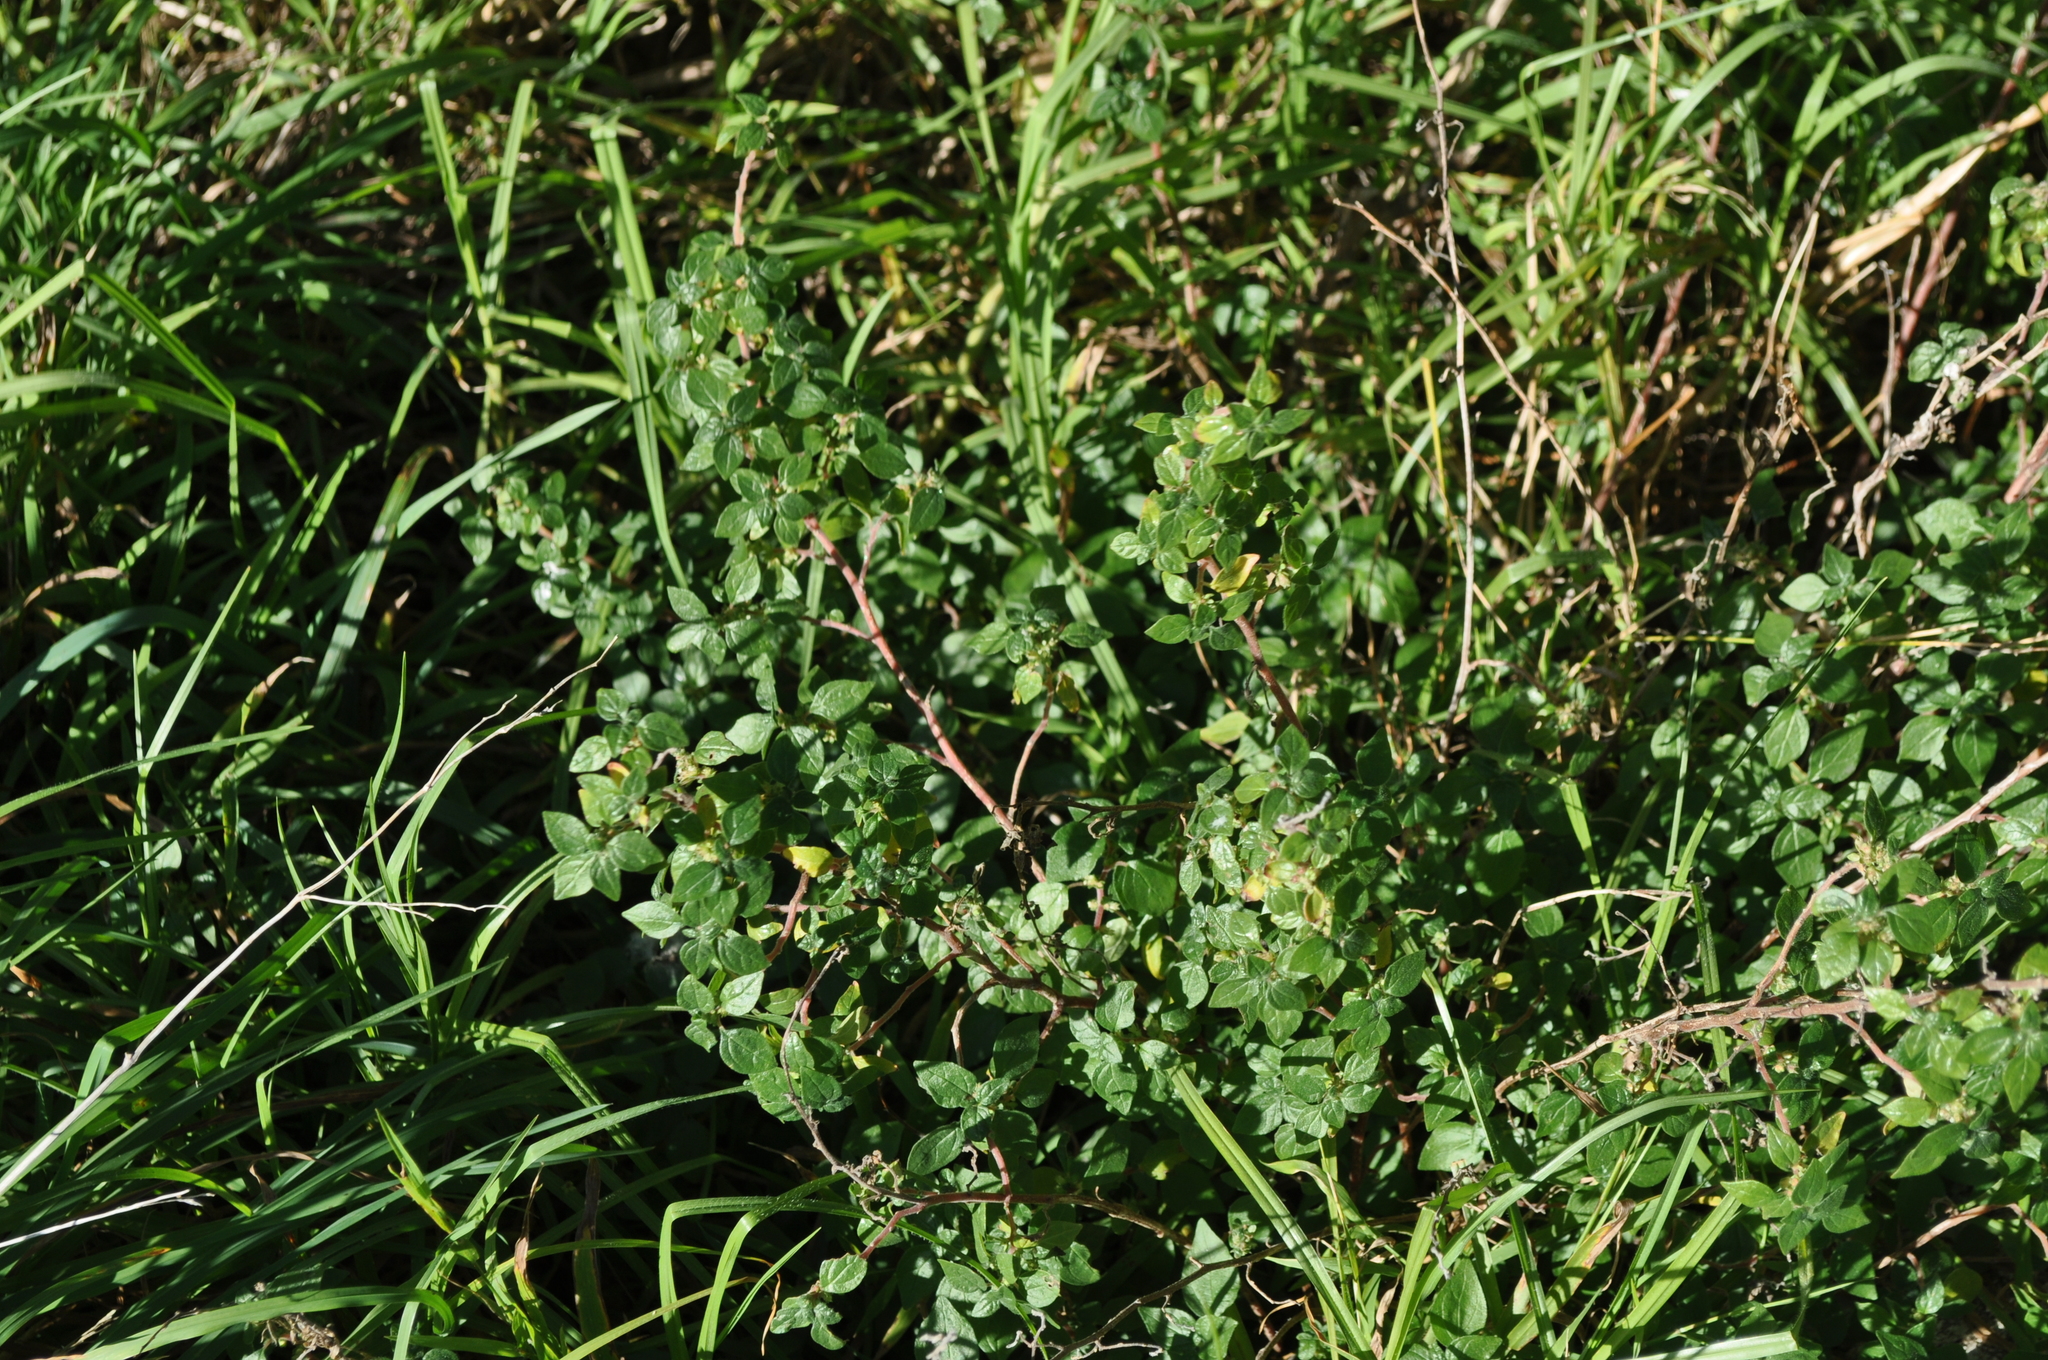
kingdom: Plantae
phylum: Tracheophyta
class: Magnoliopsida
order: Rosales
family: Urticaceae
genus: Parietaria
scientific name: Parietaria judaica
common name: Pellitory-of-the-wall
